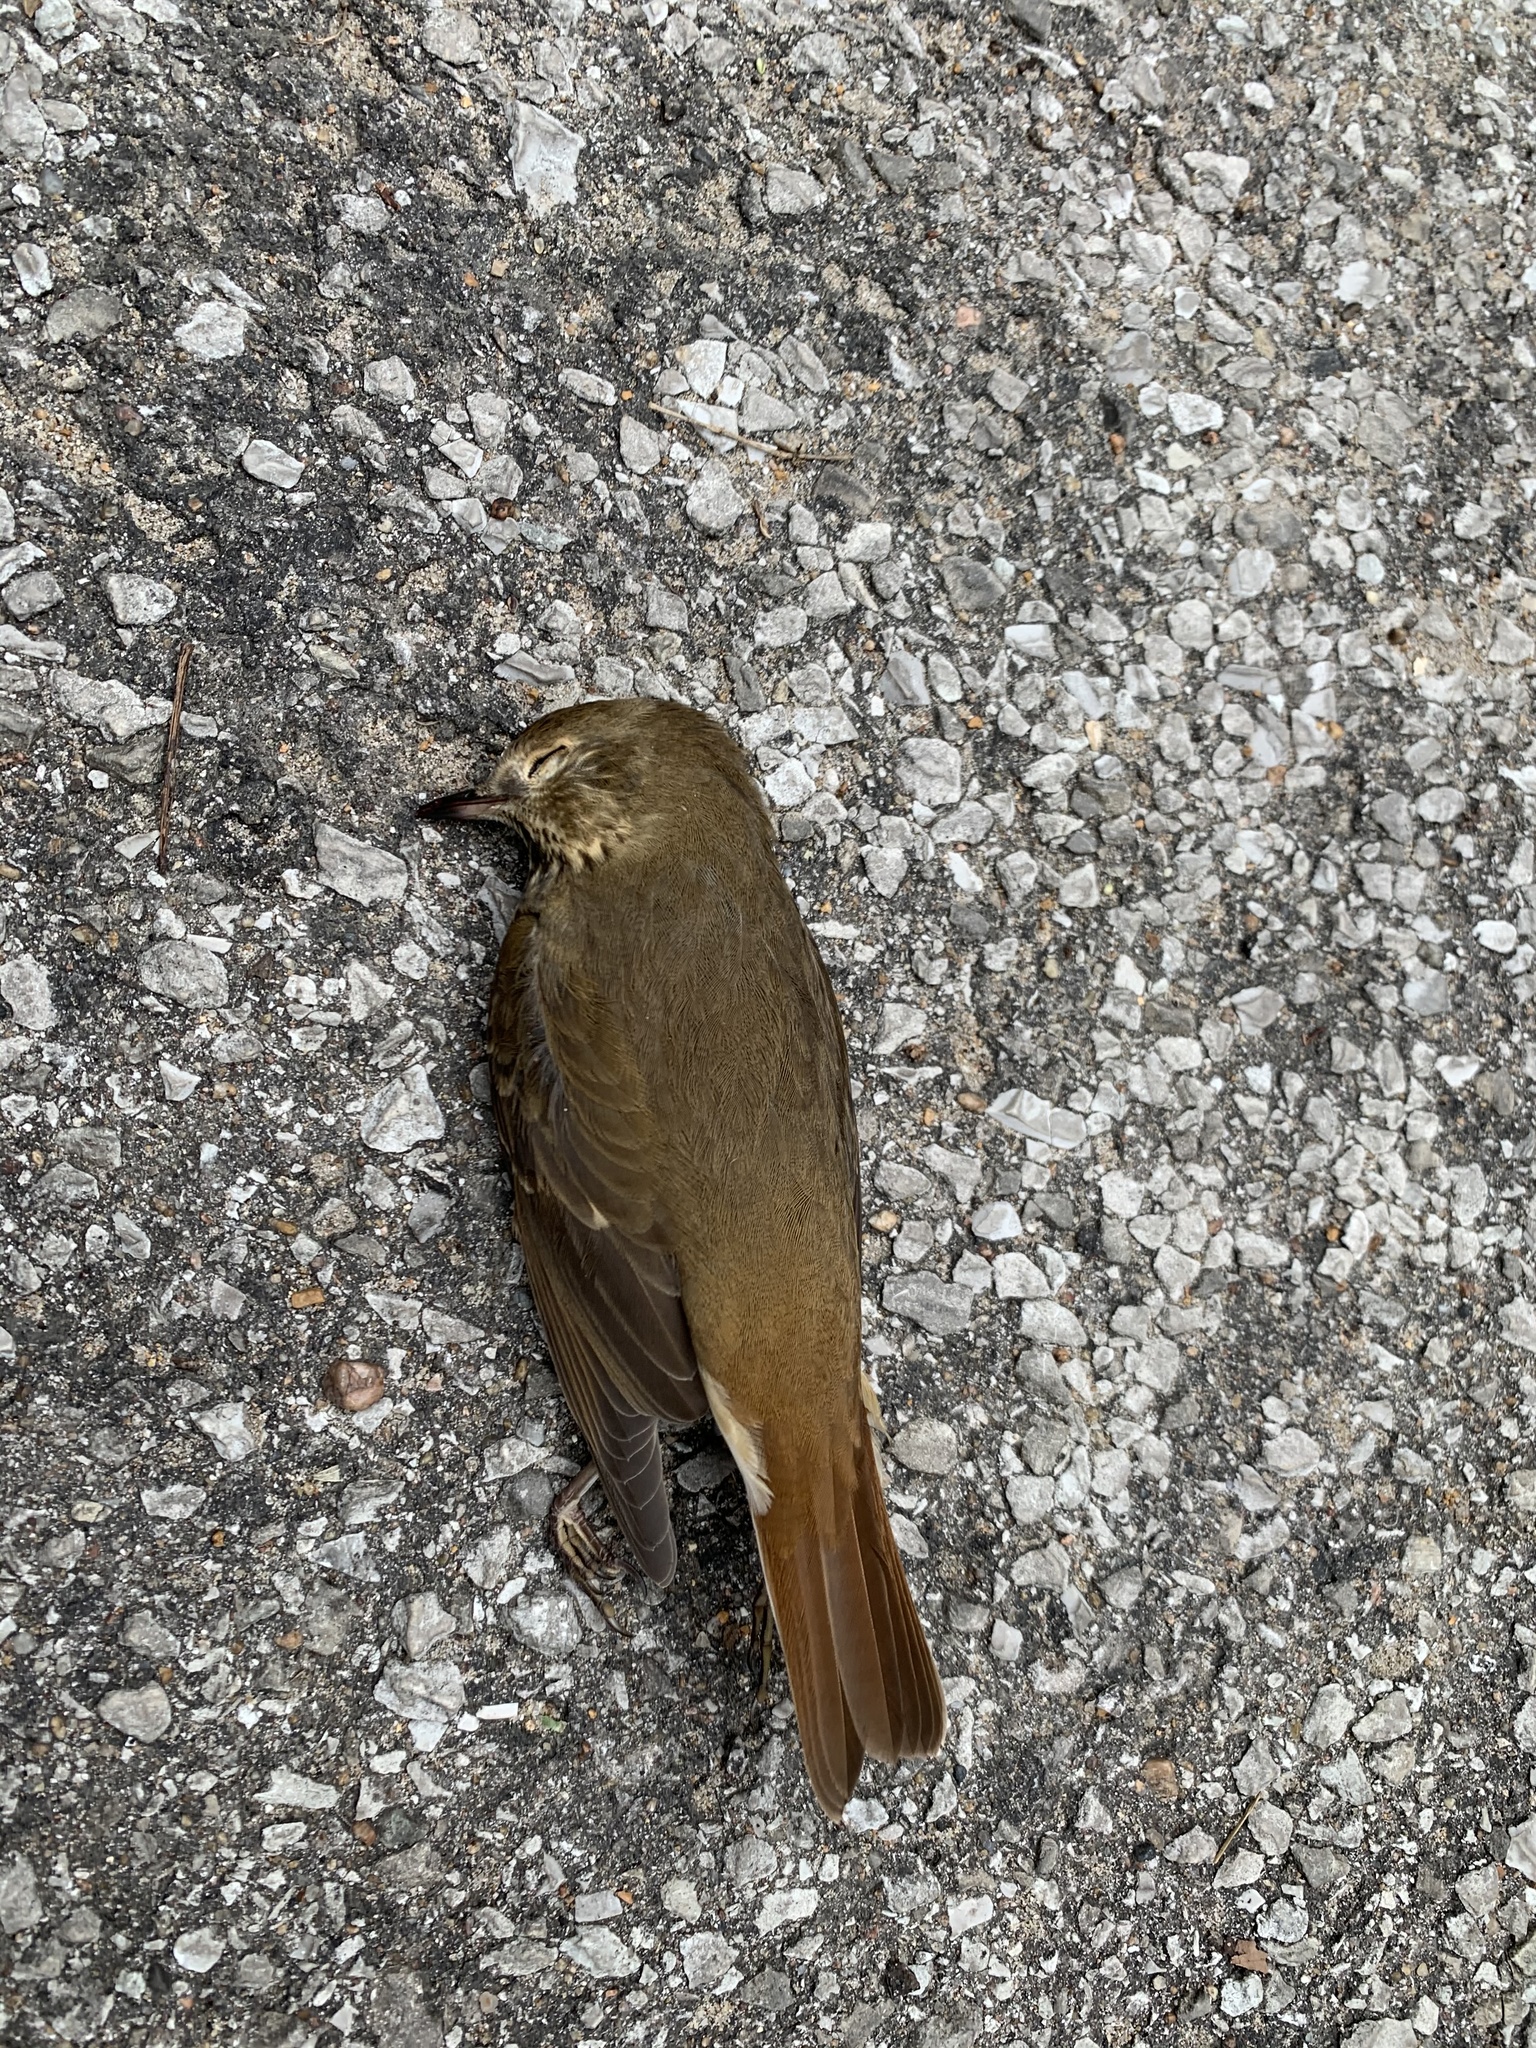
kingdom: Animalia
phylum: Chordata
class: Aves
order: Passeriformes
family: Turdidae
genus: Catharus
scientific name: Catharus guttatus
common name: Hermit thrush
